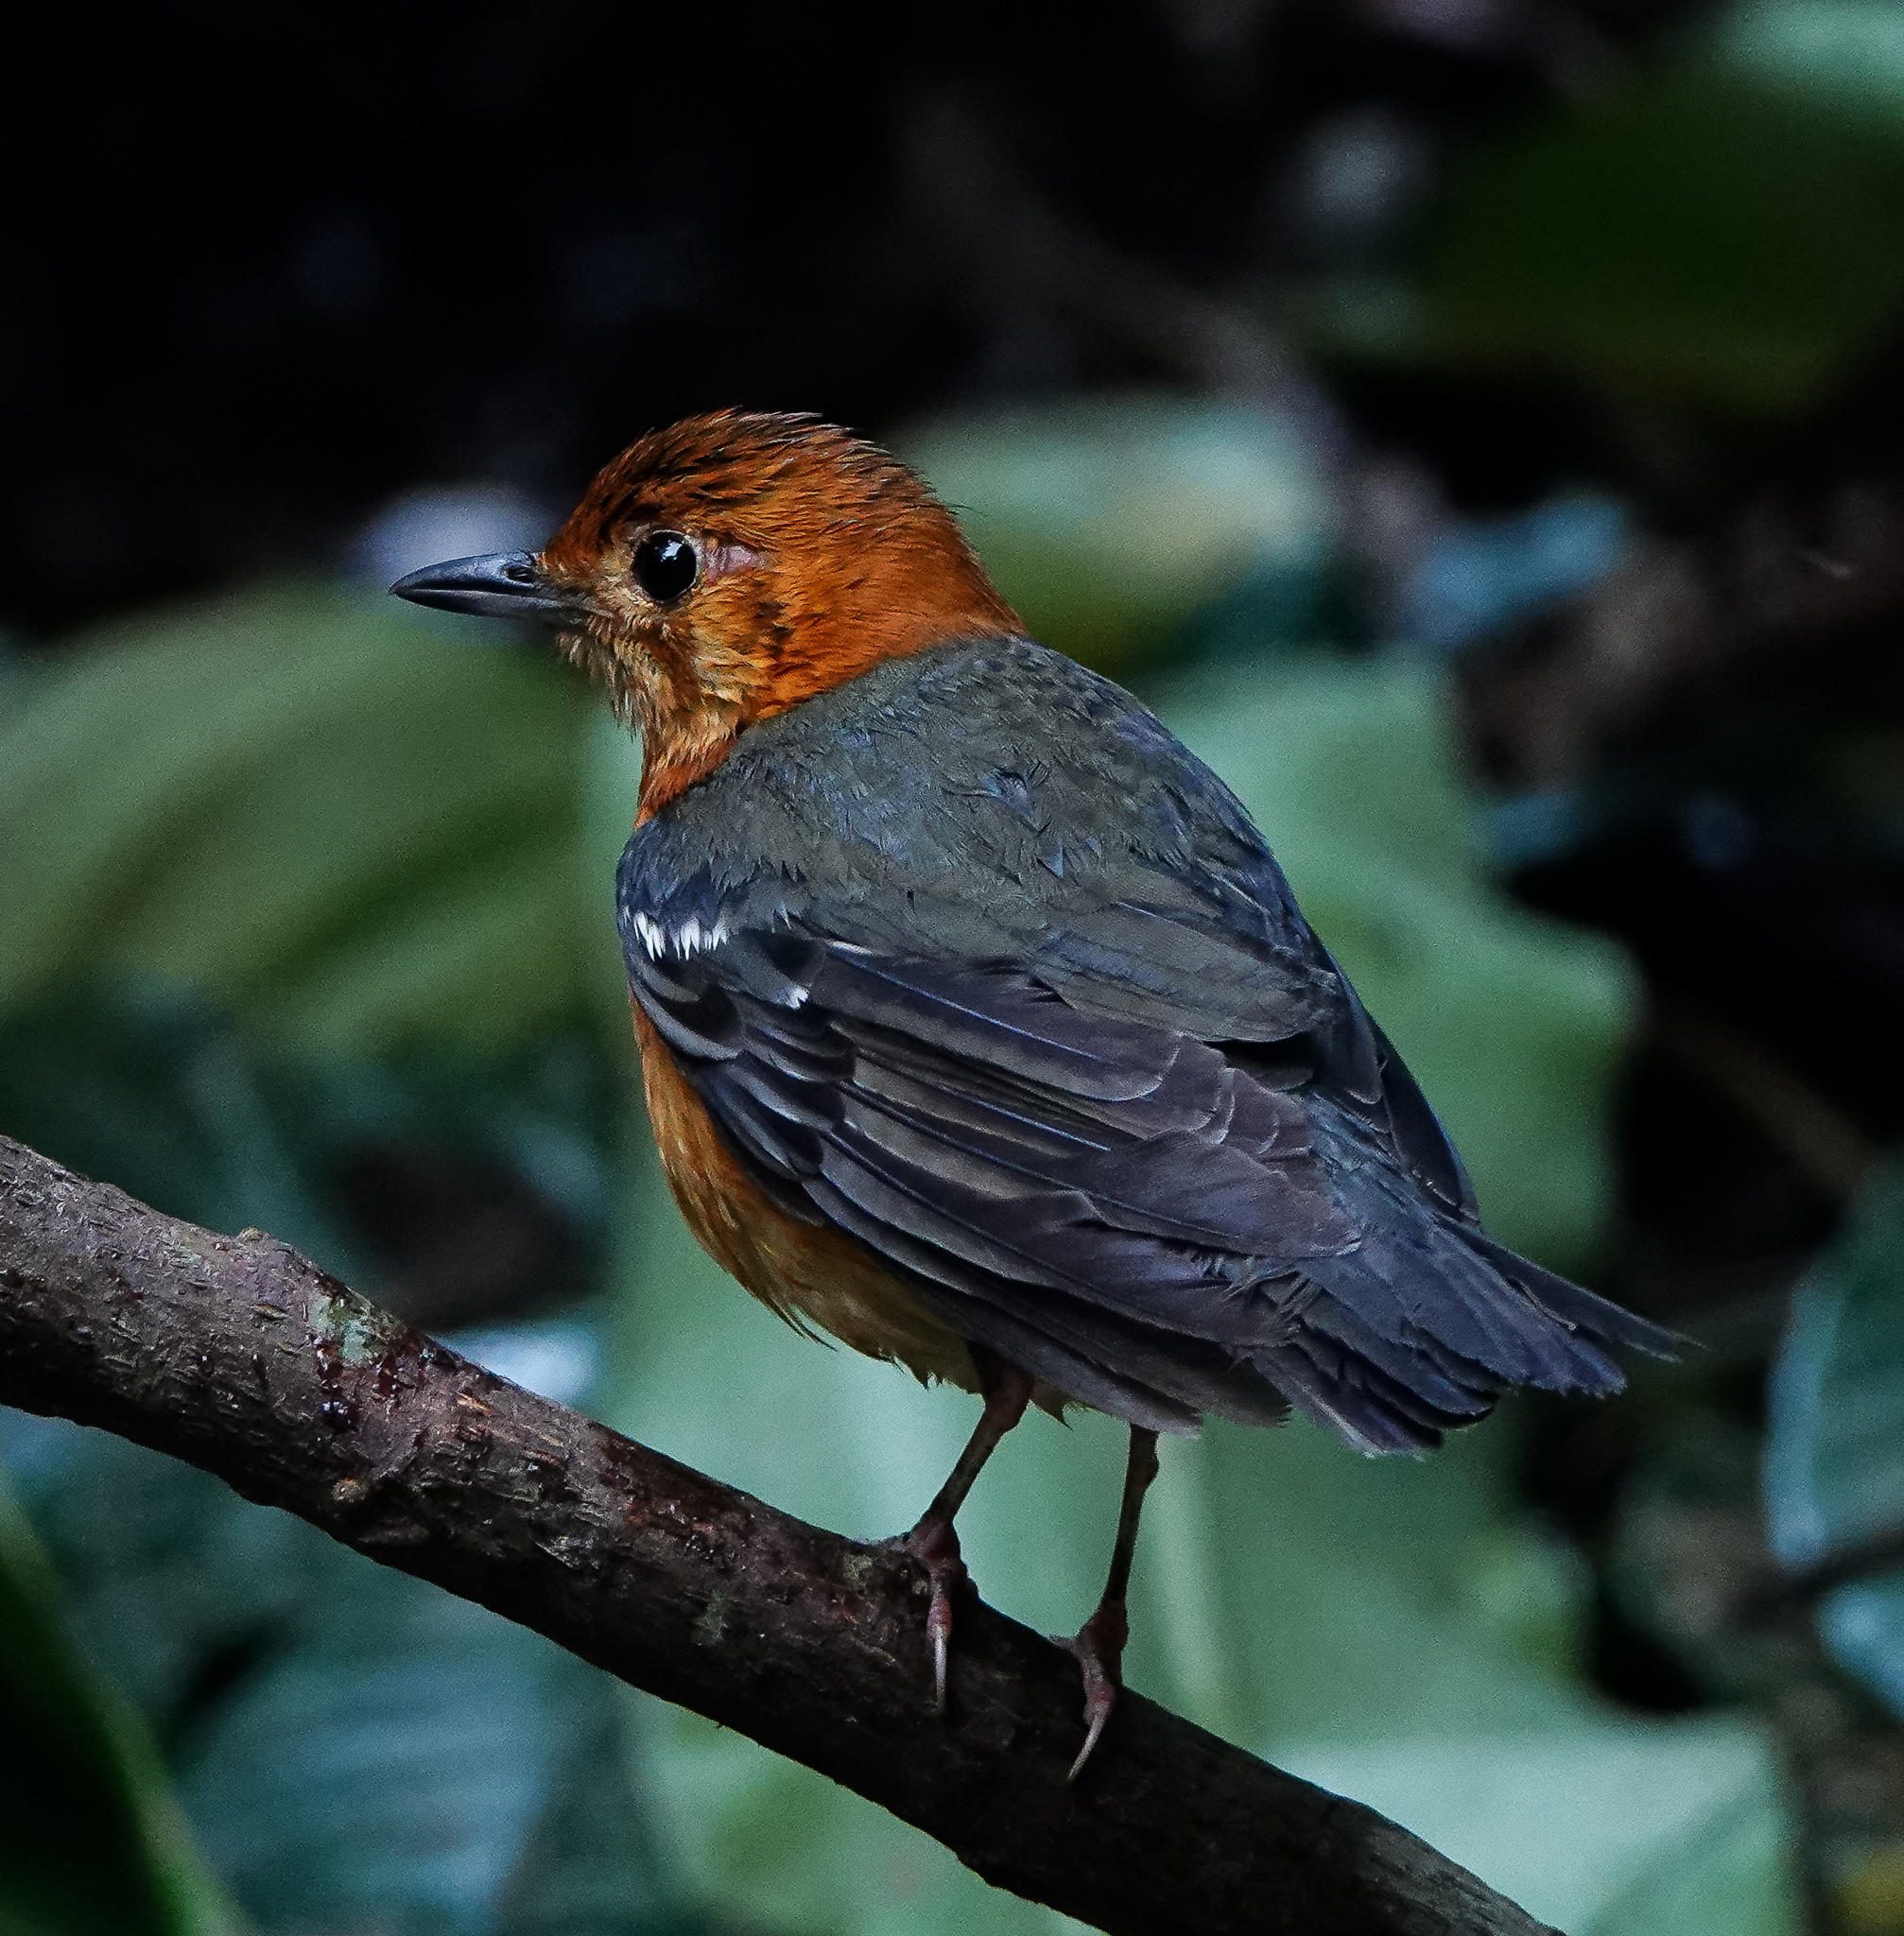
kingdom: Animalia
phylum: Chordata
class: Aves
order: Passeriformes
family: Turdidae
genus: Geokichla
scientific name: Geokichla citrina
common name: Orange-headed thrush
